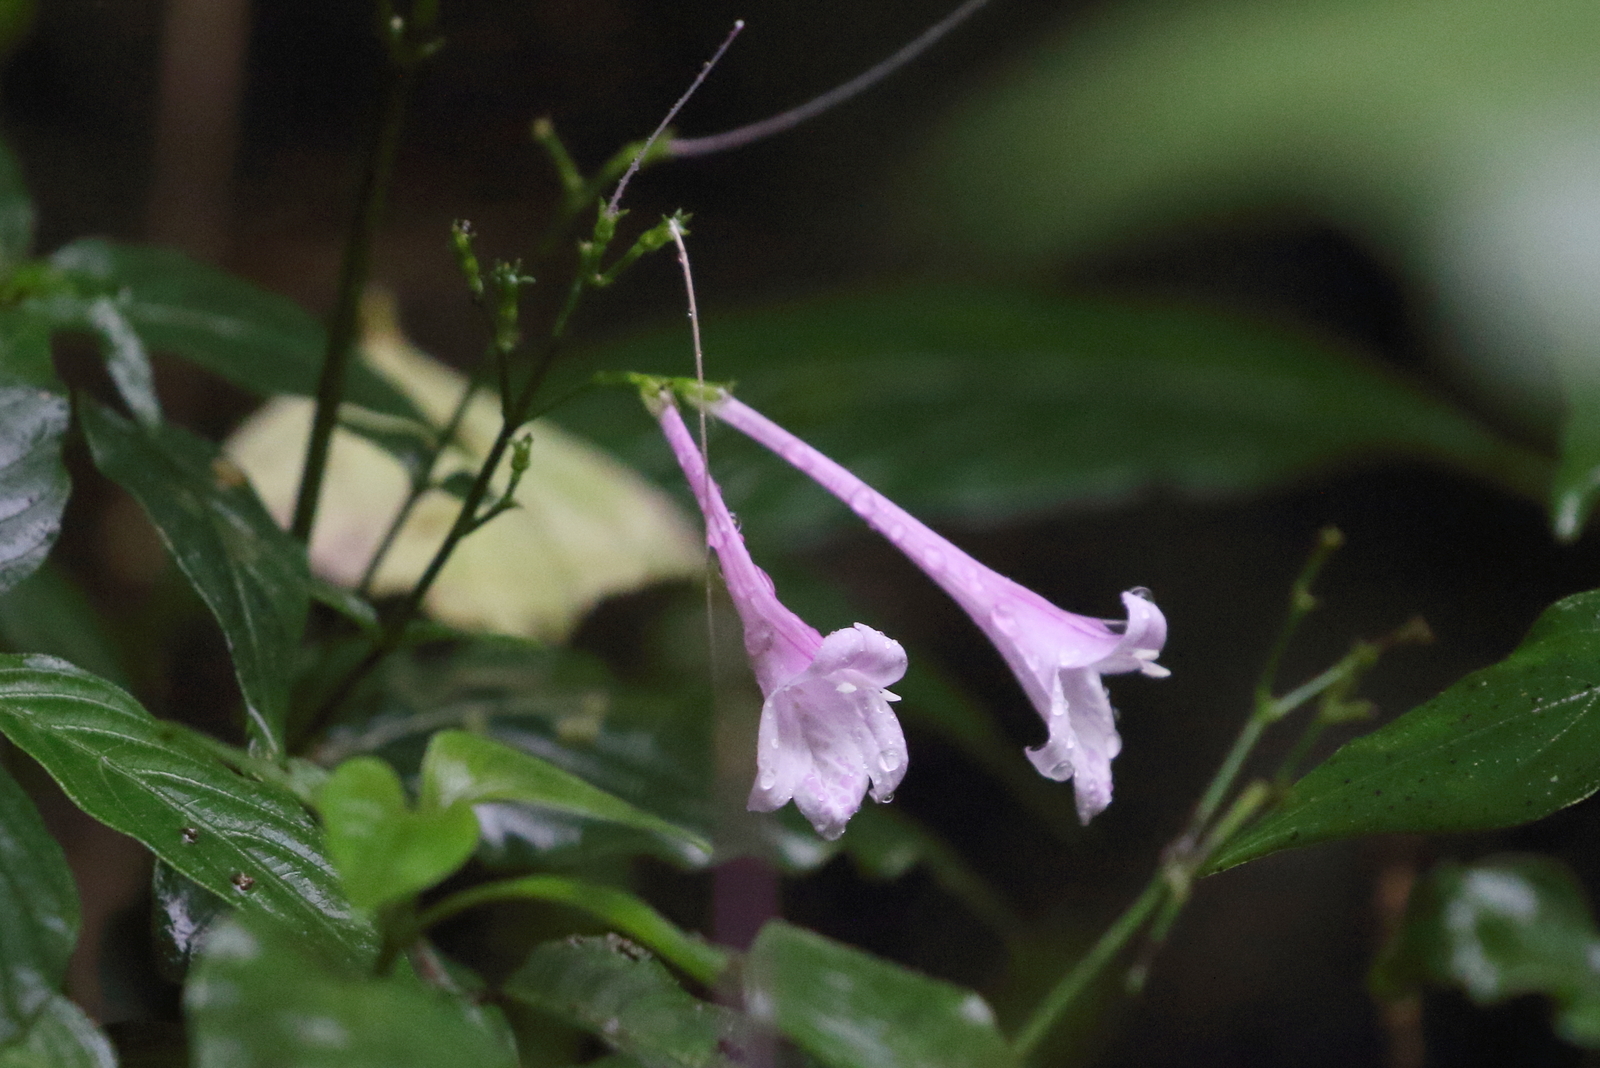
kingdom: Plantae
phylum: Tracheophyta
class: Magnoliopsida
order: Lamiales
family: Acanthaceae
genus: Isoglossa
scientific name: Isoglossa collina
